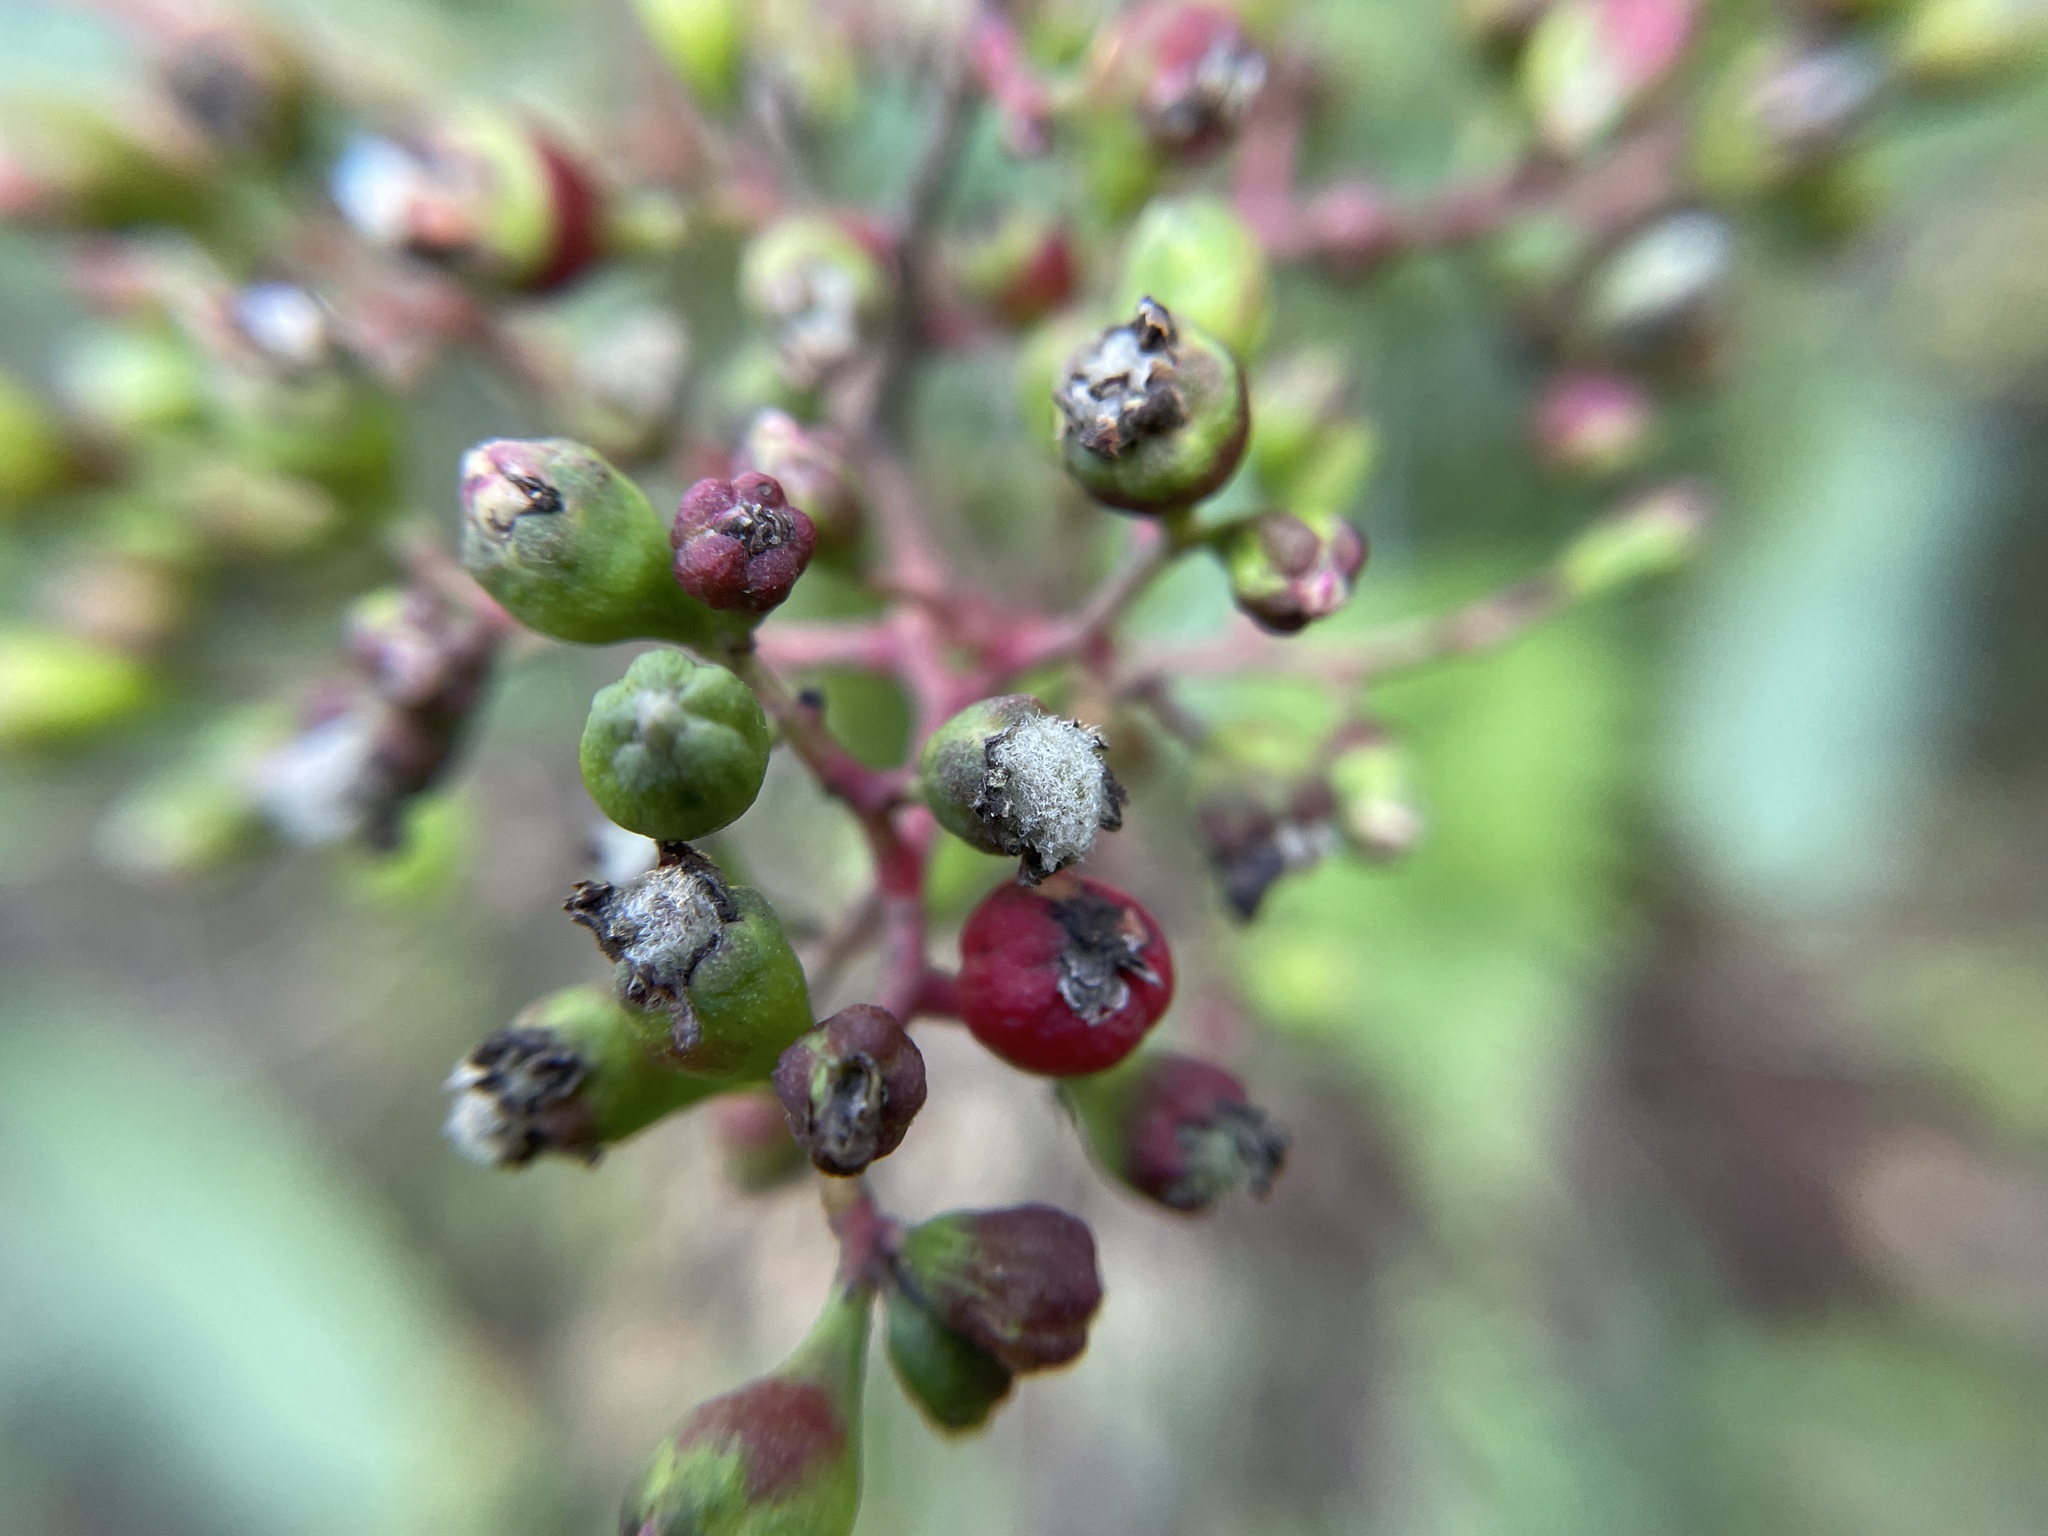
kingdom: Animalia
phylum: Arthropoda
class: Insecta
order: Diptera
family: Cecidomyiidae
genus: Asphondylia
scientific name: Asphondylia photiniae
